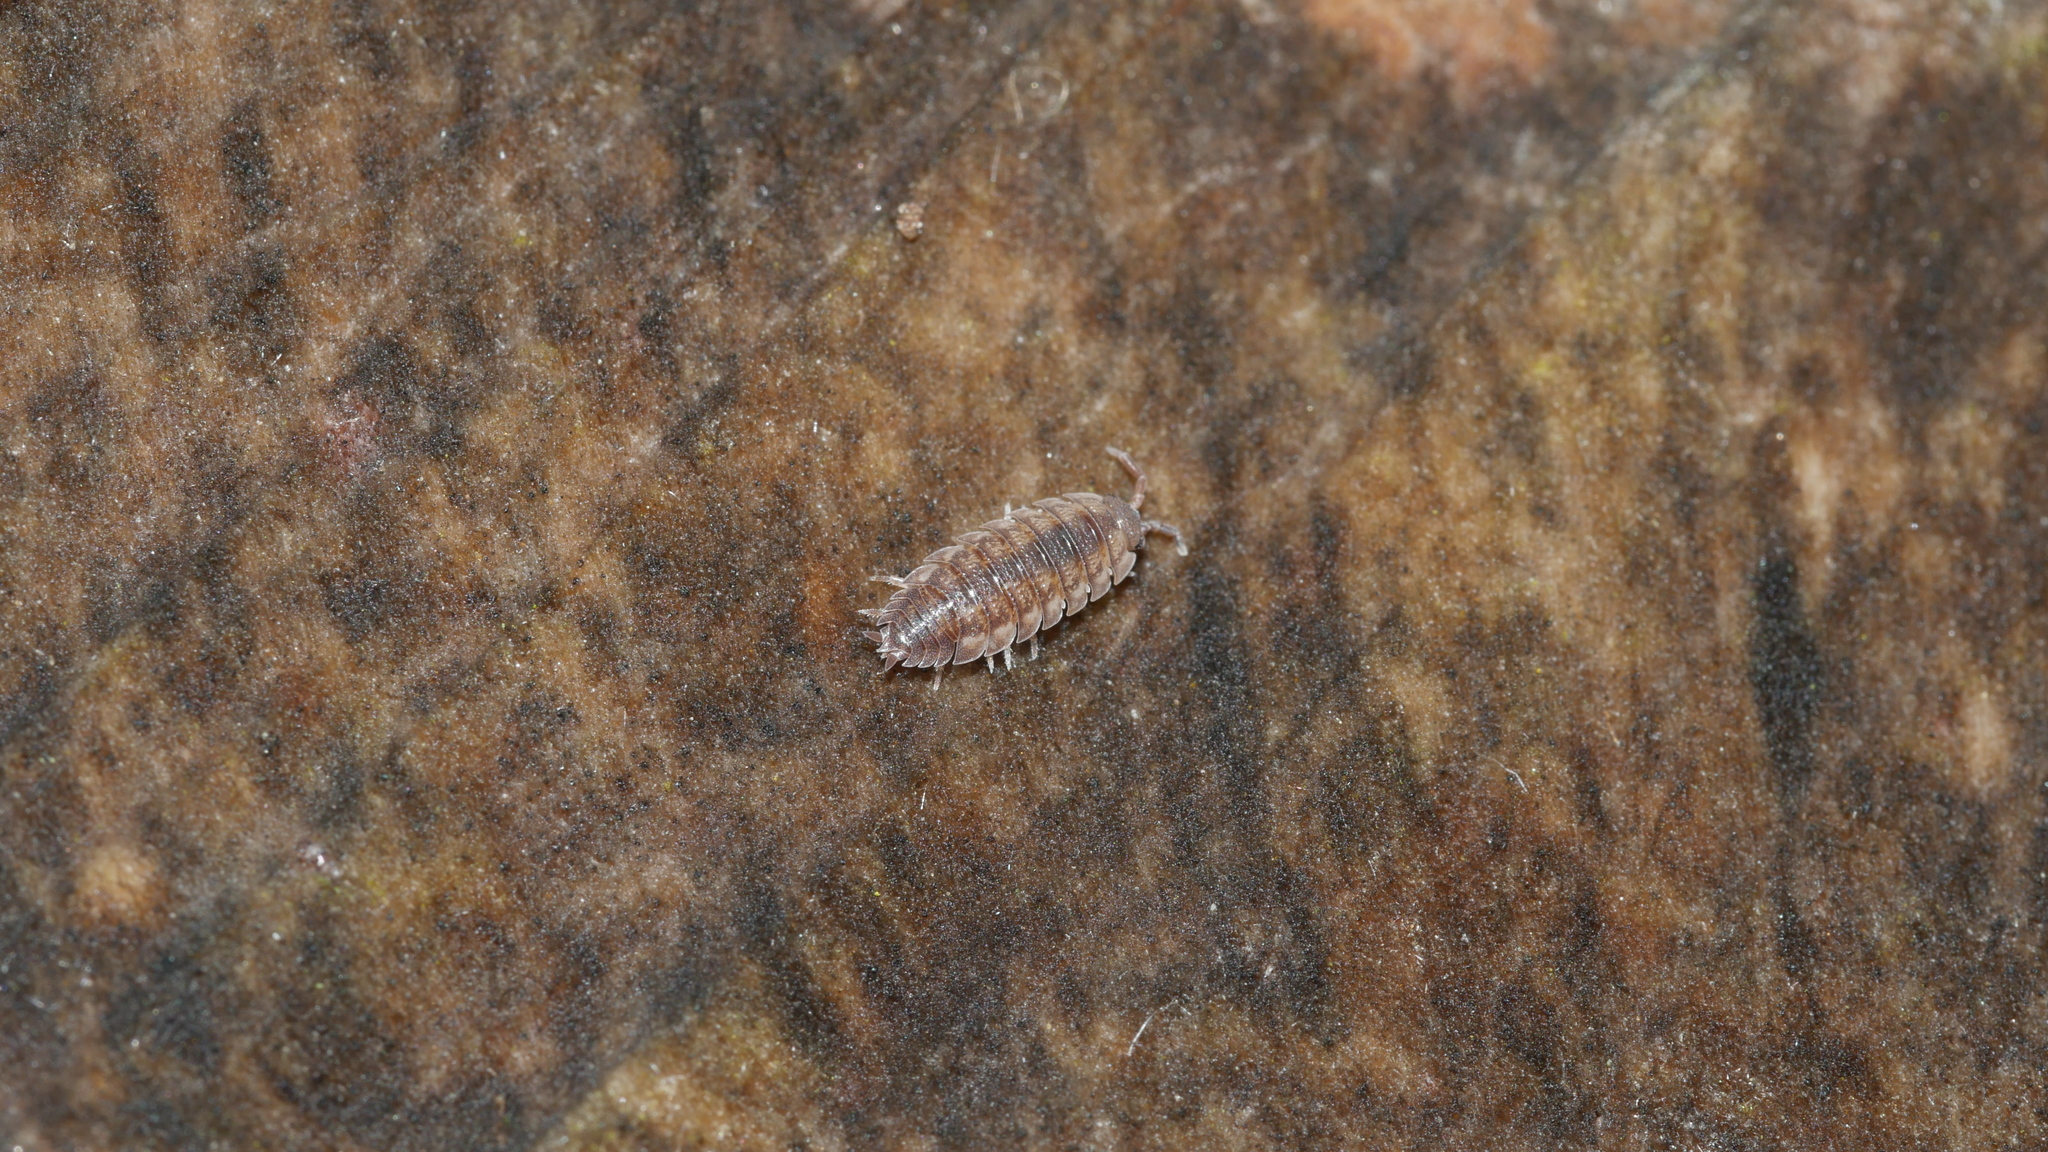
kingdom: Animalia
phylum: Arthropoda
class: Malacostraca
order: Isopoda
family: Porcellionidae
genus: Porcellio
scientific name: Porcellio scaber
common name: Common rough woodlouse
